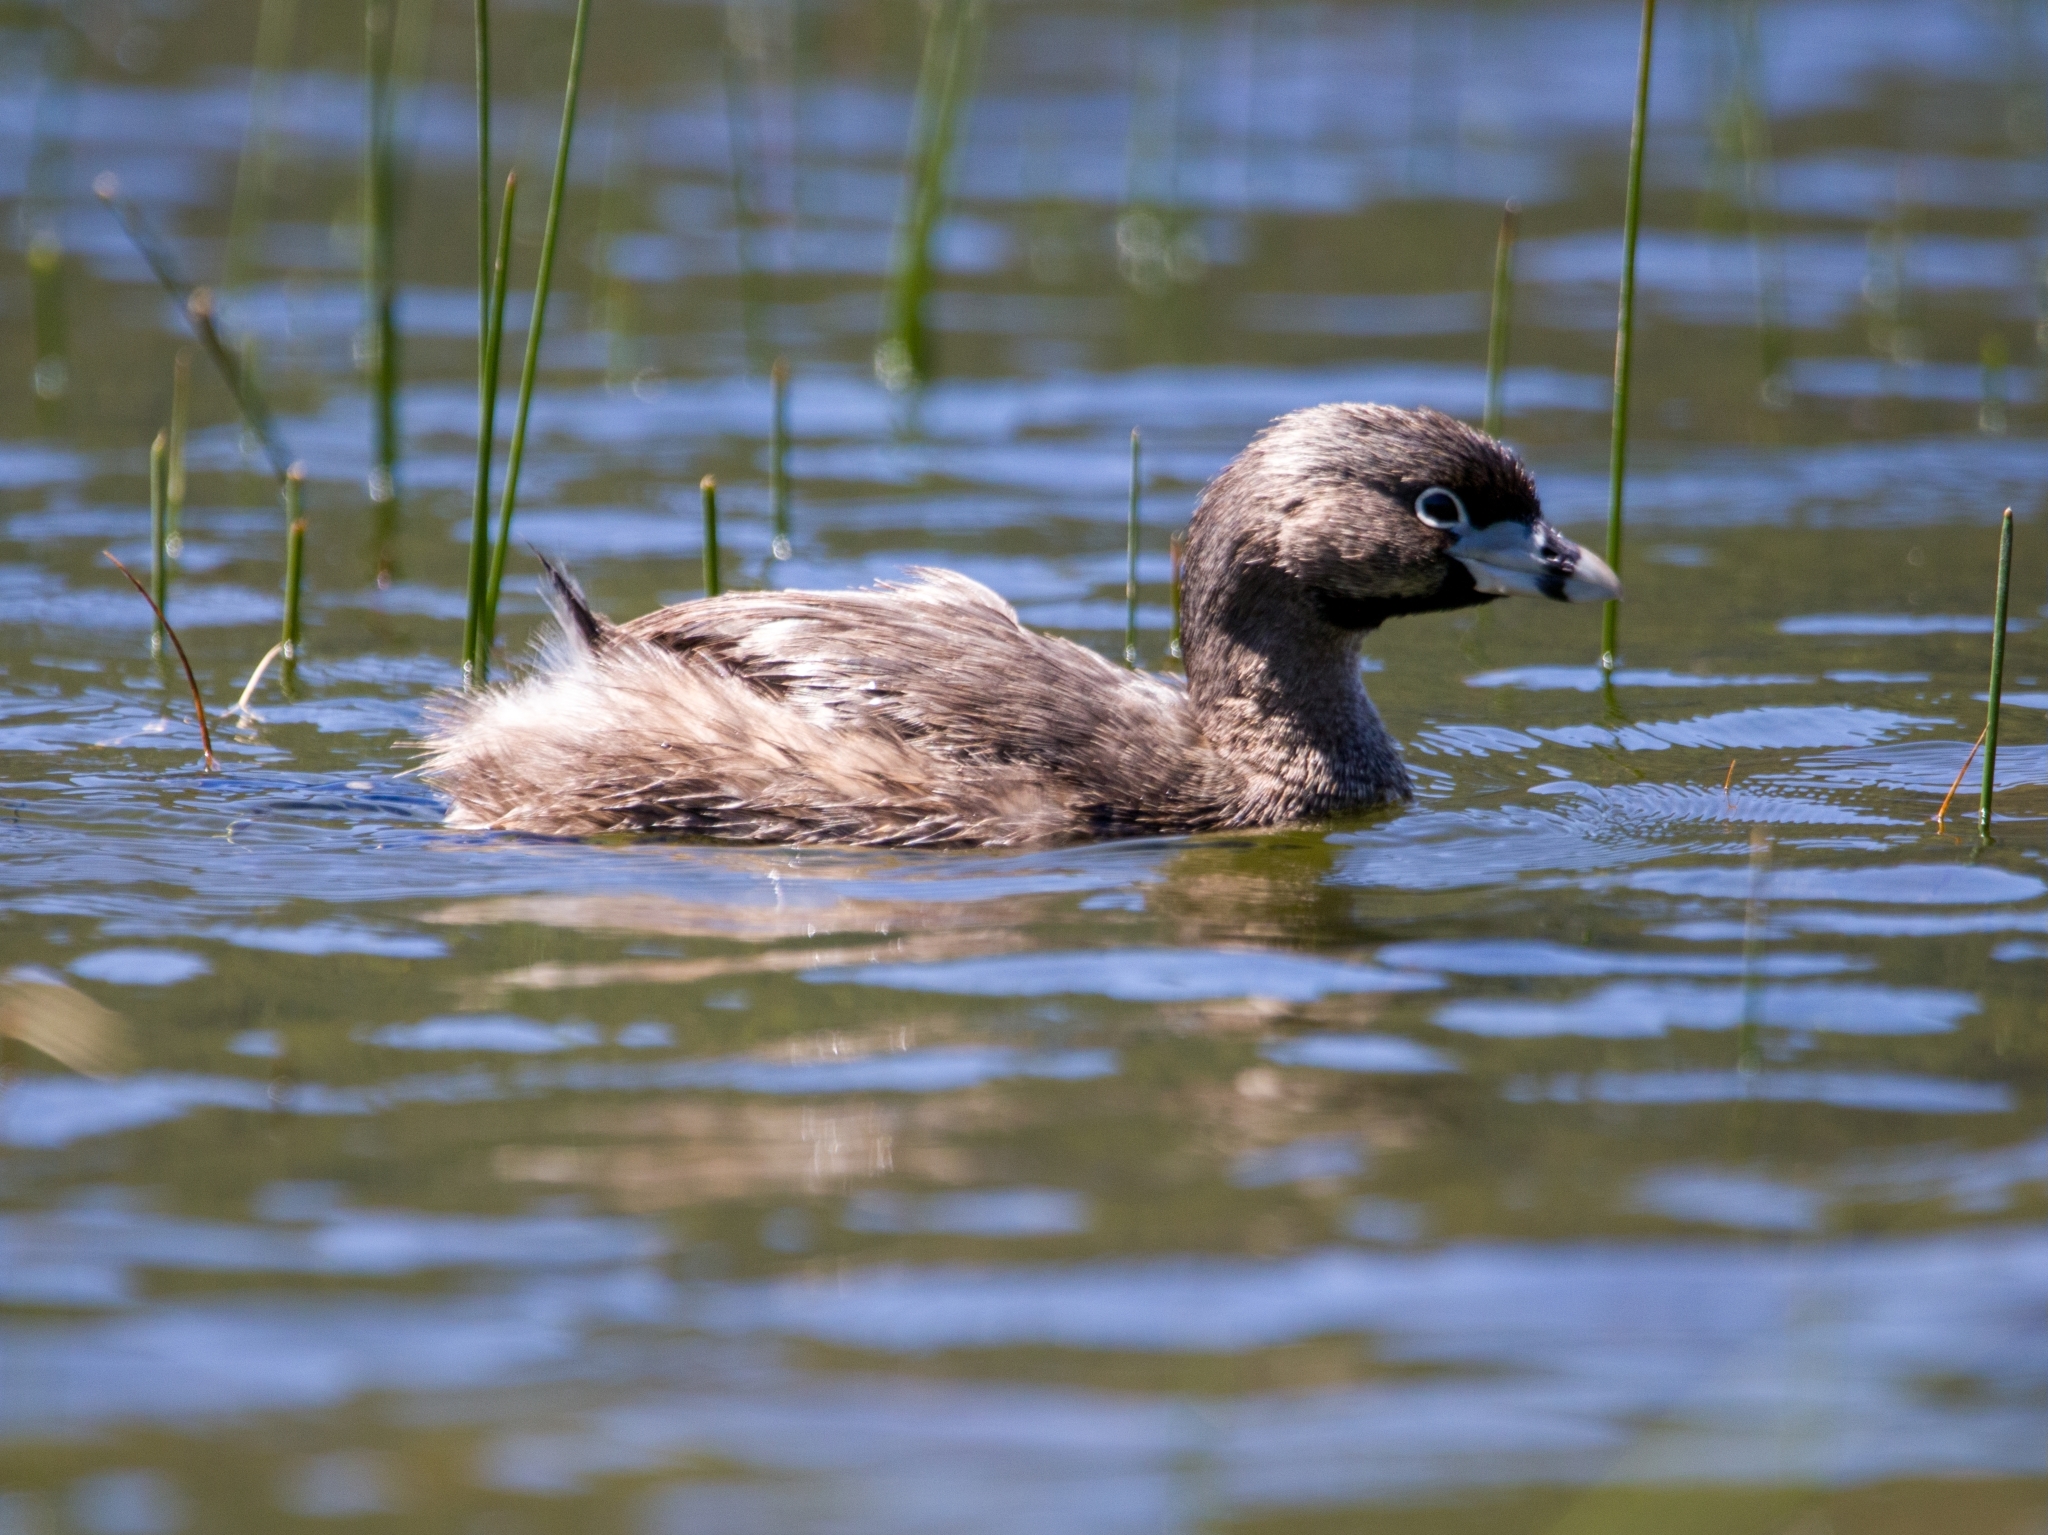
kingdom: Animalia
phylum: Chordata
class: Aves
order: Podicipediformes
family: Podicipedidae
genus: Podilymbus
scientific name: Podilymbus podiceps
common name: Pied-billed grebe
